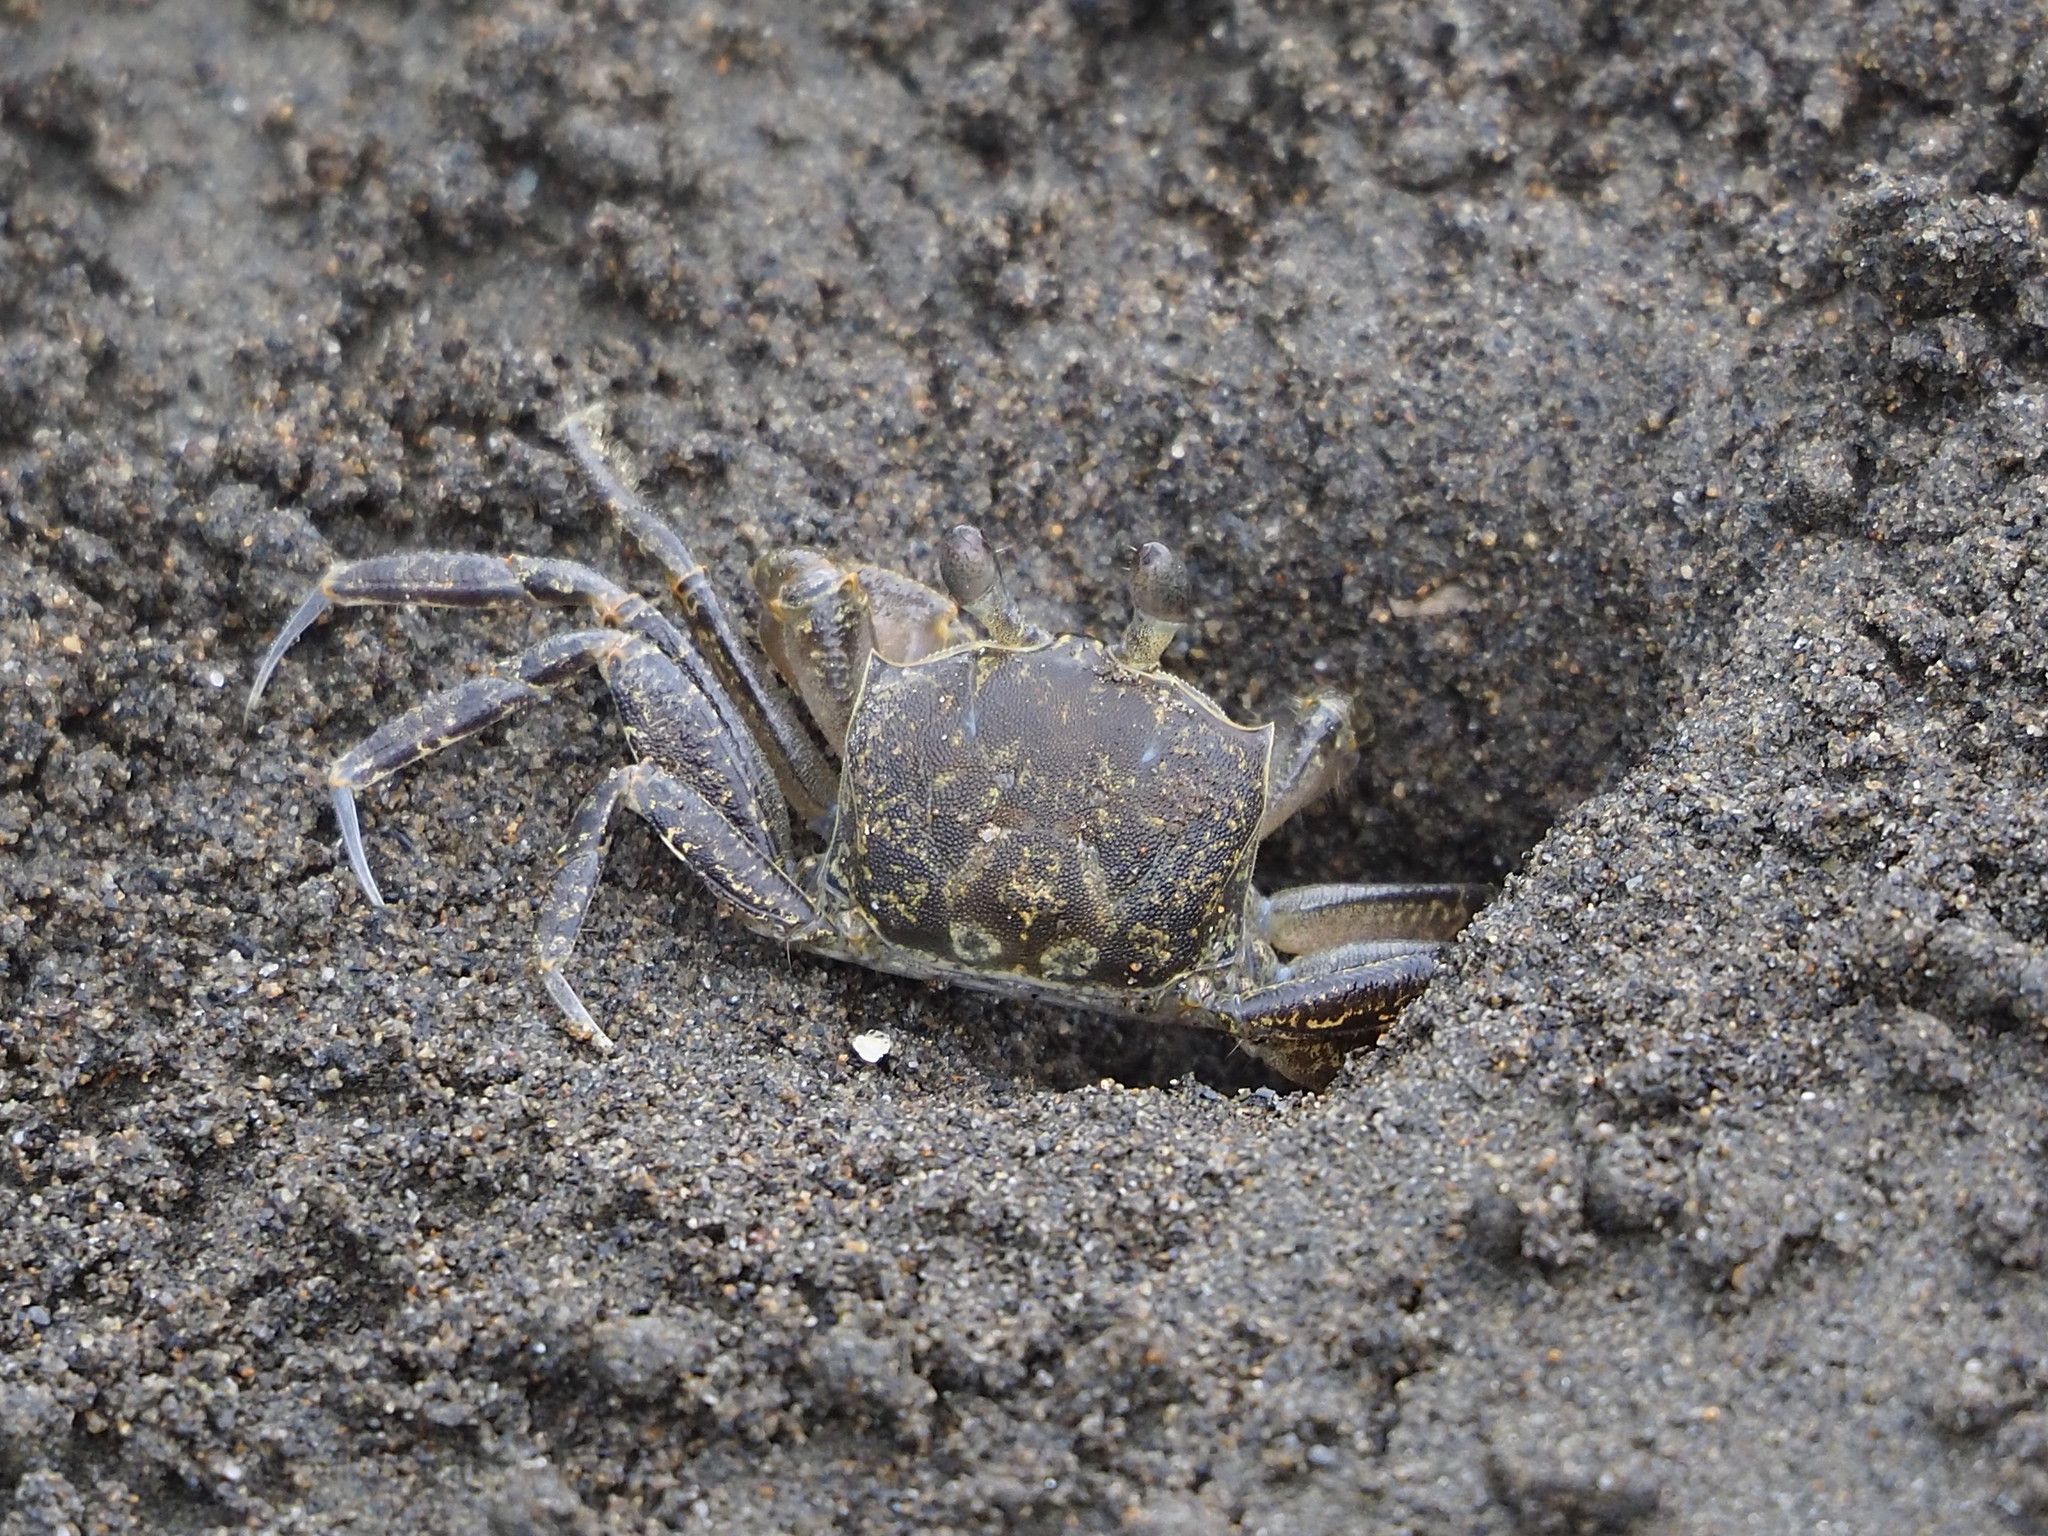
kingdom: Animalia
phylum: Arthropoda
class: Malacostraca
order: Decapoda
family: Ocypodidae
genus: Ocypode
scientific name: Ocypode ceratophthalmus
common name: Indo-pacific ghost crab
